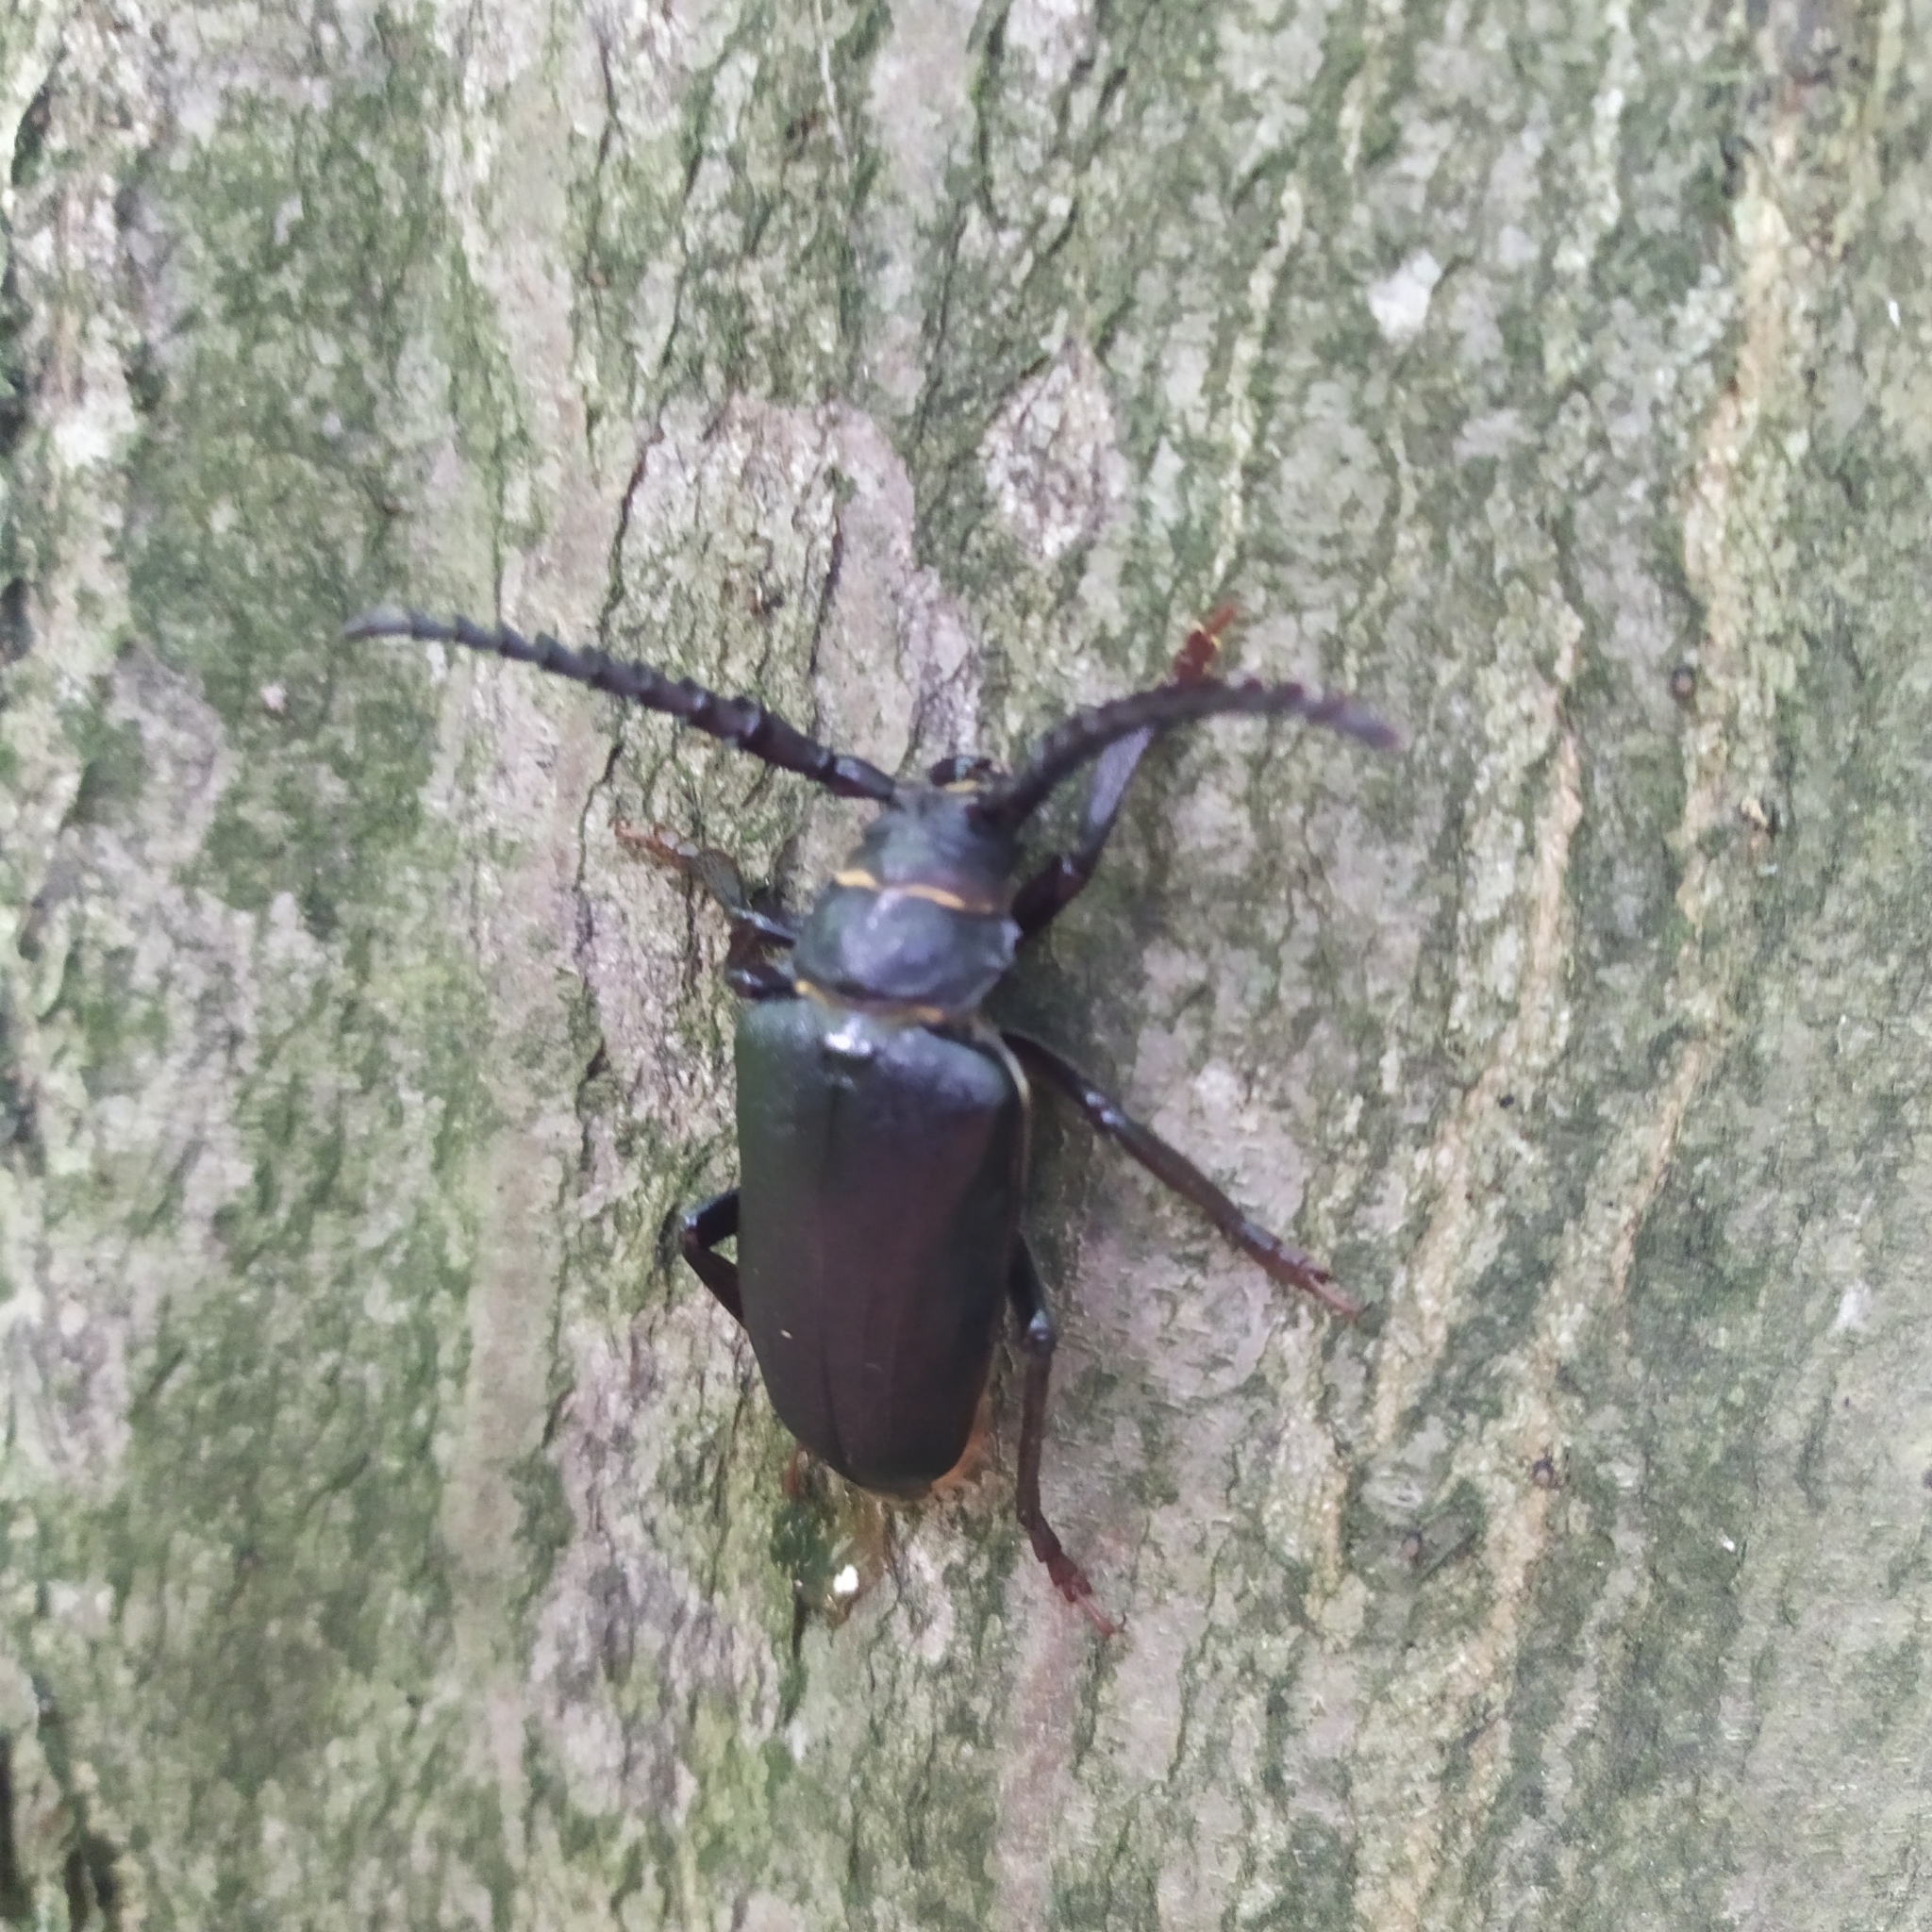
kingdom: Animalia
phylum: Arthropoda
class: Insecta
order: Coleoptera
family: Cerambycidae
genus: Prionus
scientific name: Prionus coriarius
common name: Tanner beetle
